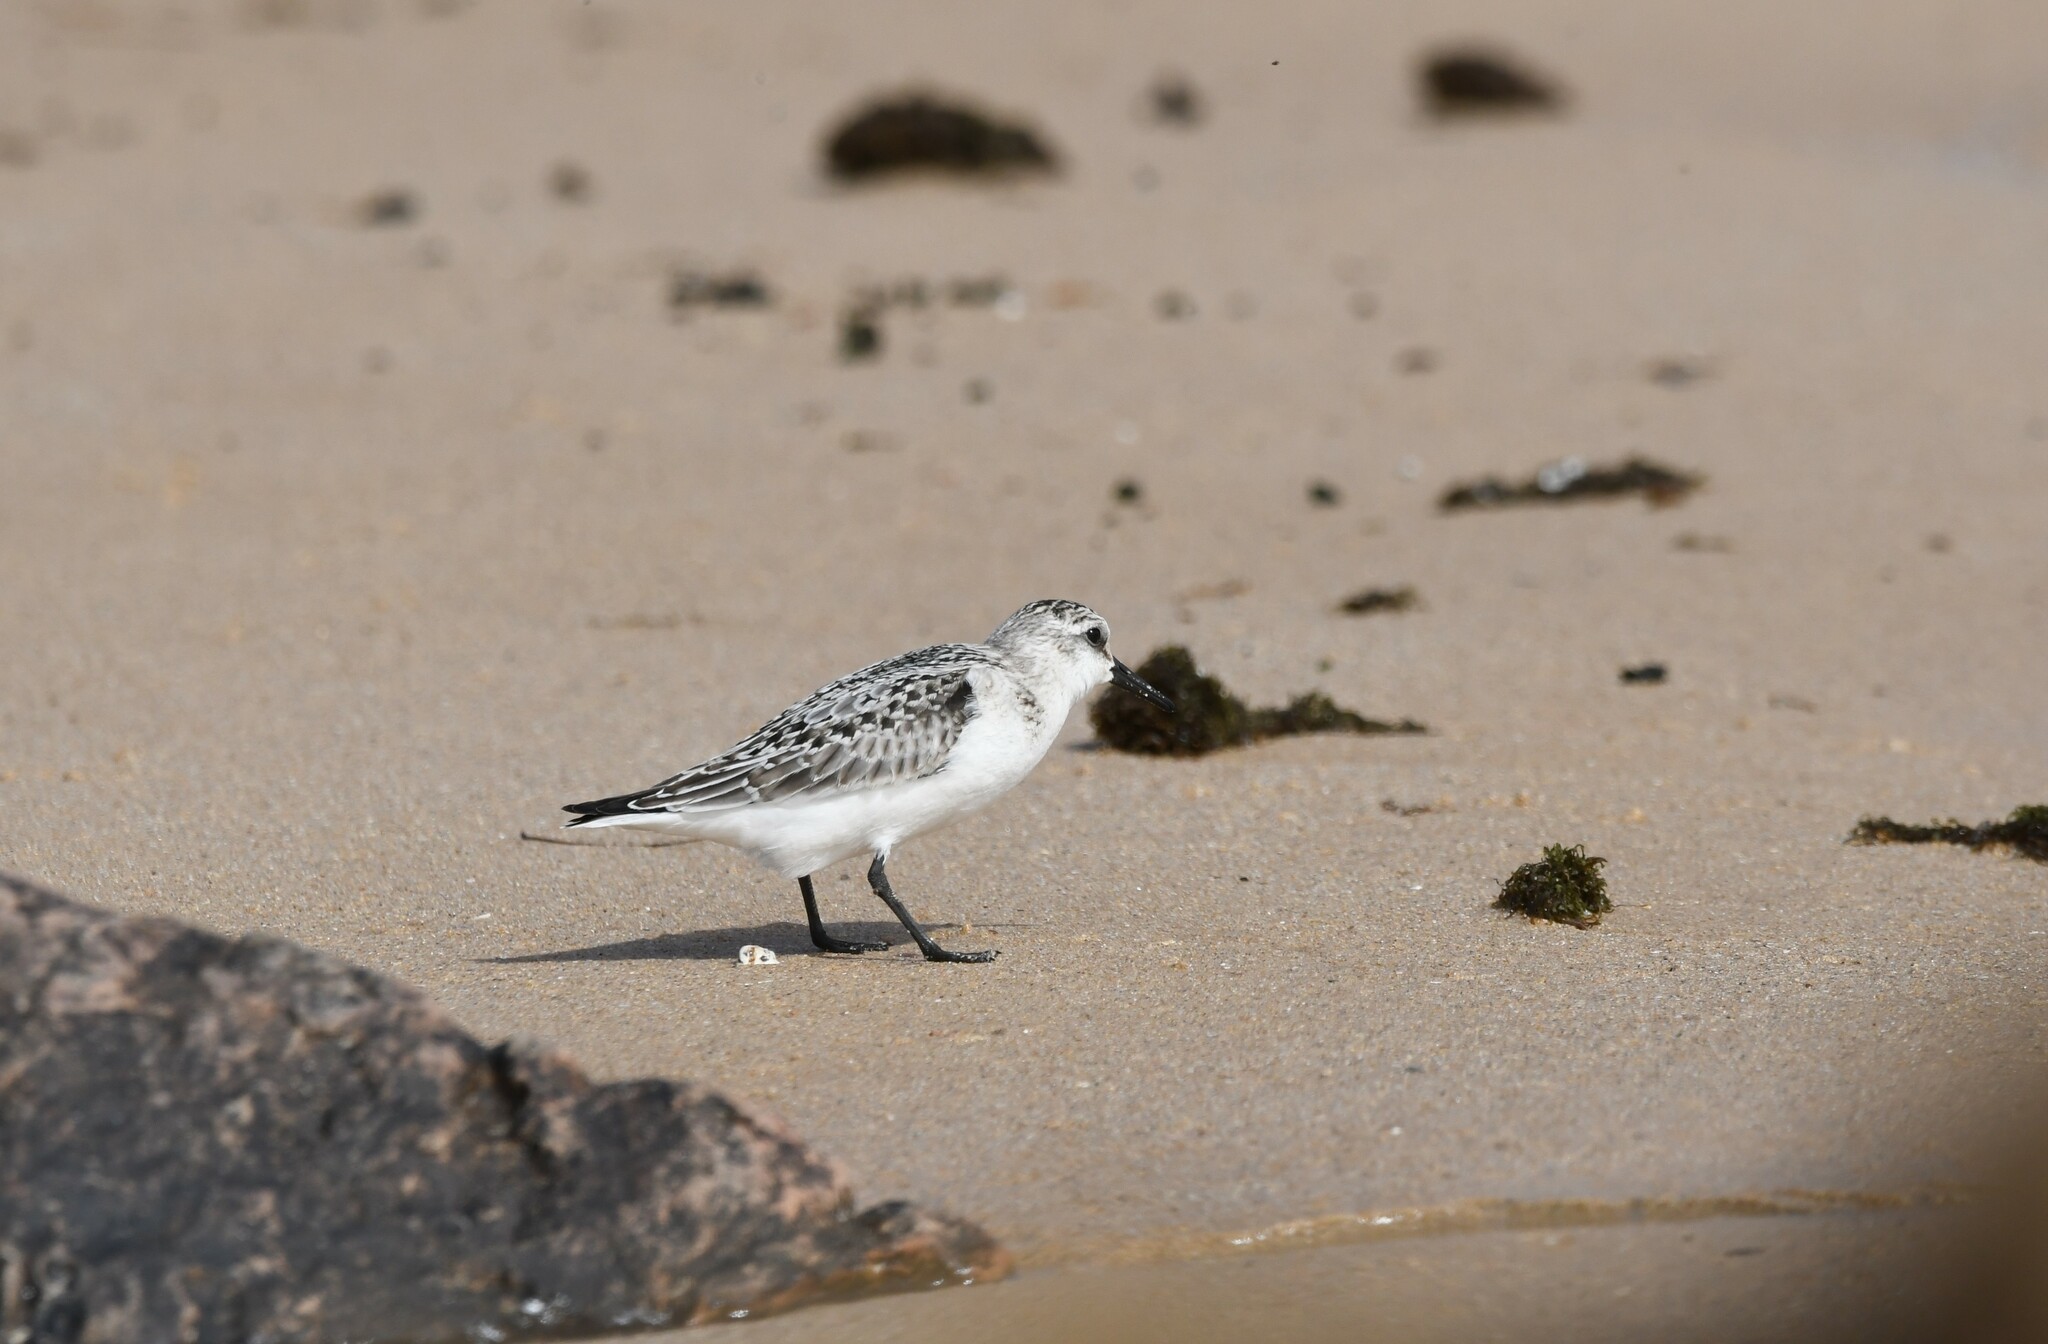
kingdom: Animalia
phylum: Chordata
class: Aves
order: Charadriiformes
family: Scolopacidae
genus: Calidris
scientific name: Calidris alba
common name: Sanderling
